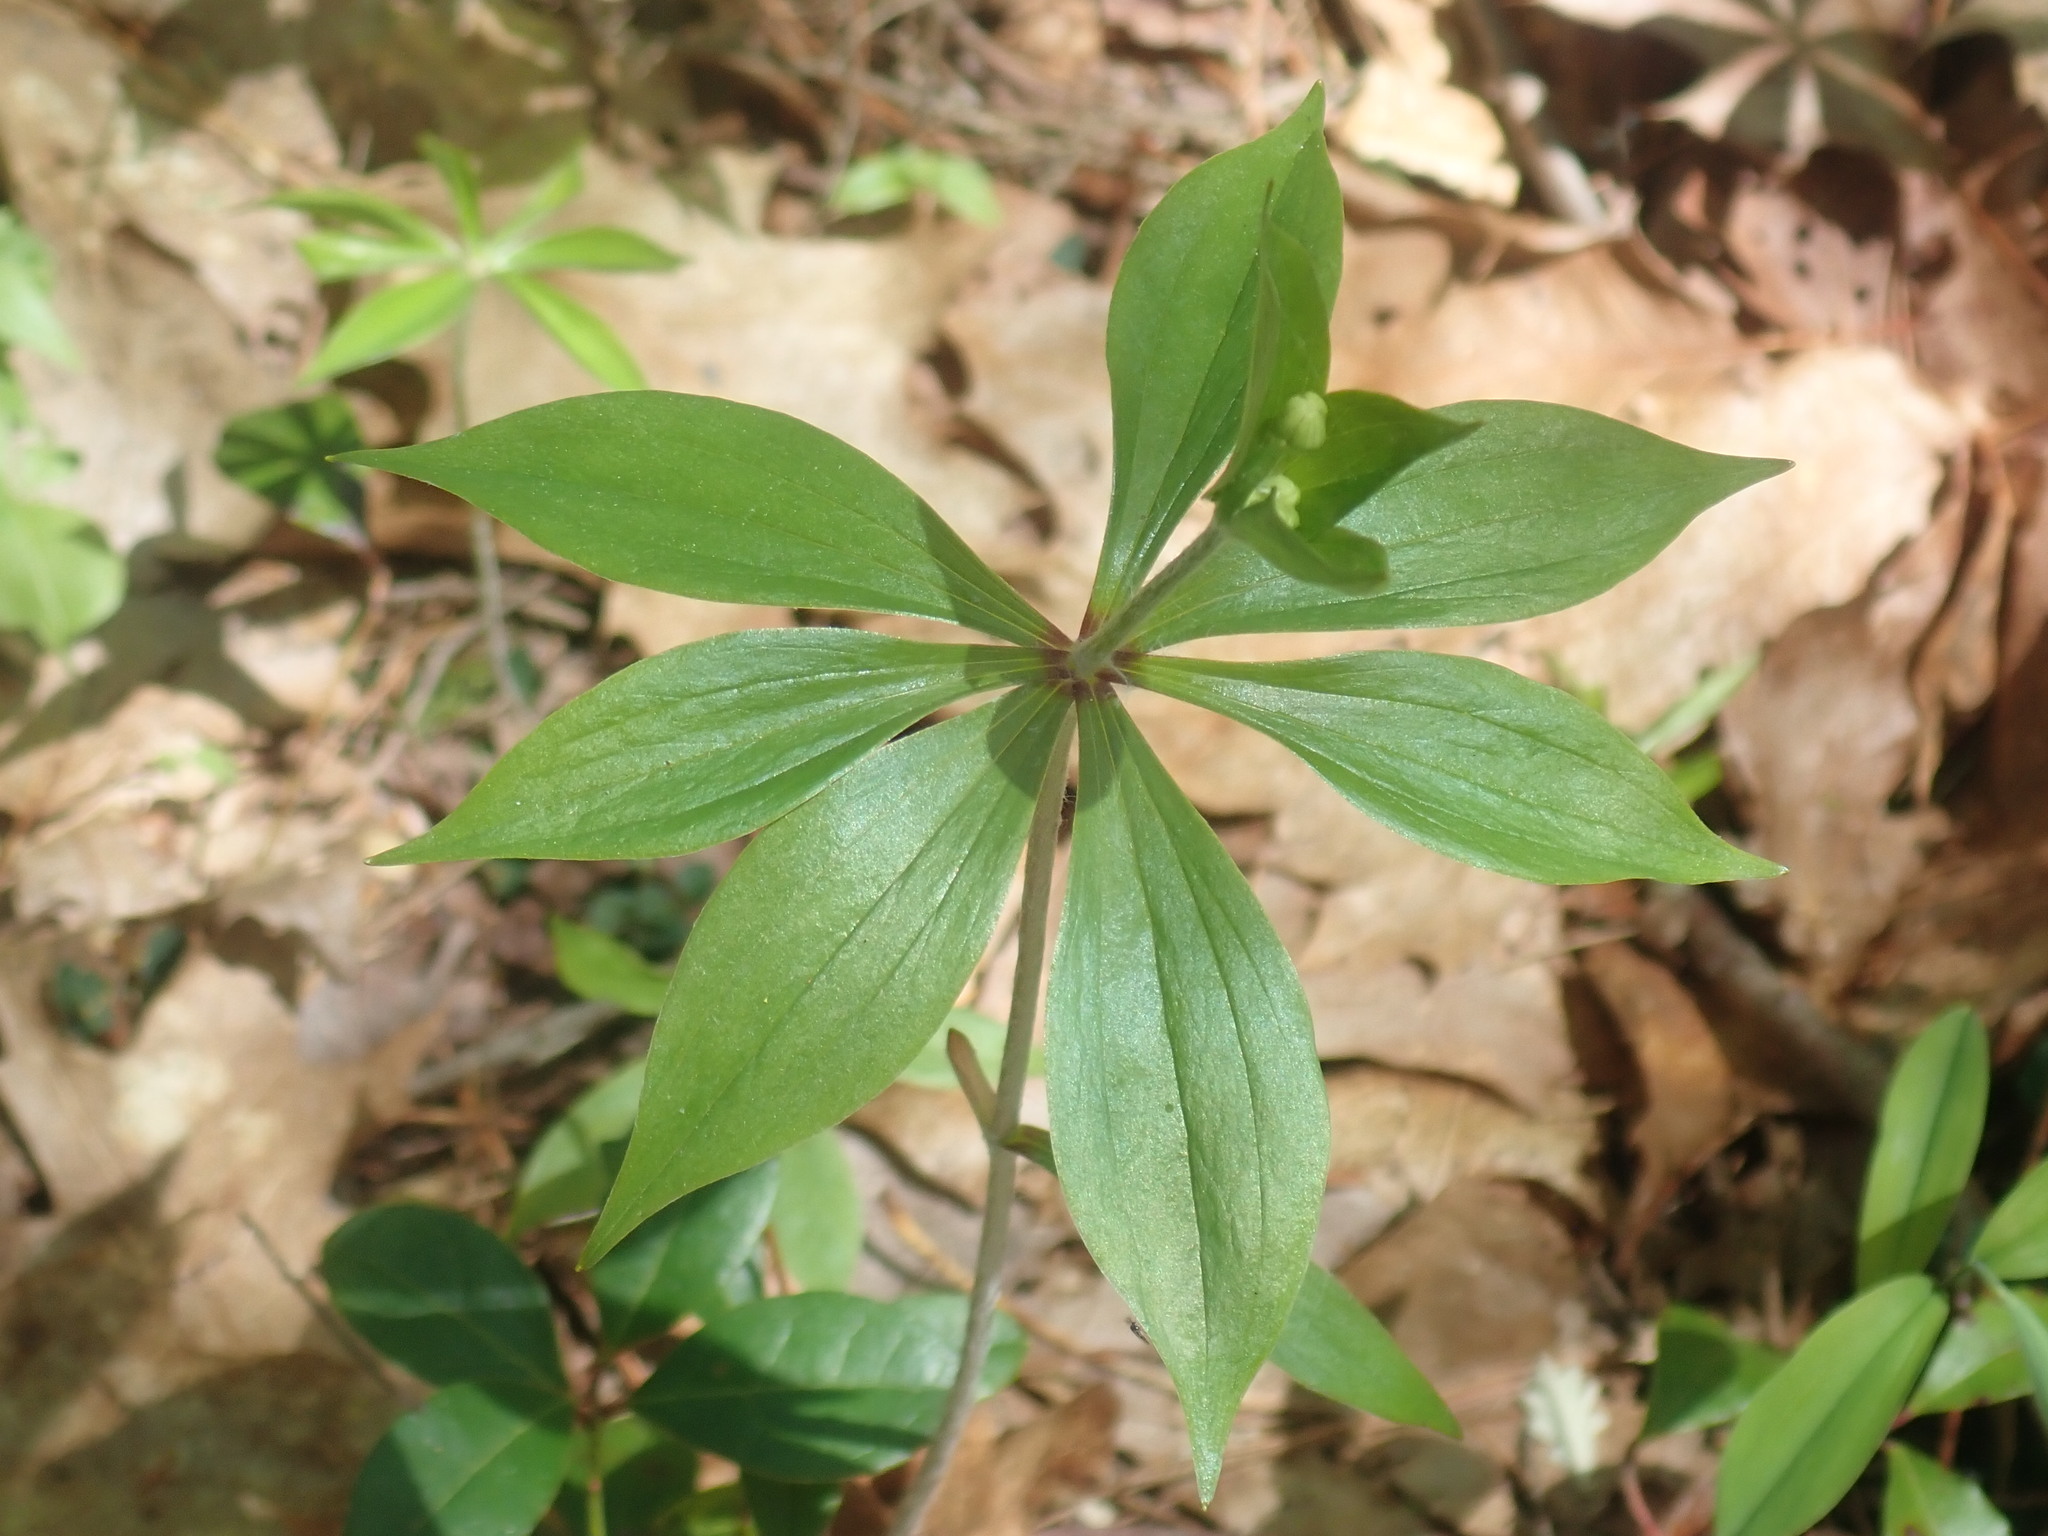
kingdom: Plantae
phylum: Tracheophyta
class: Liliopsida
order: Liliales
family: Liliaceae
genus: Medeola
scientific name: Medeola virginiana
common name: Indian cucumber-root
